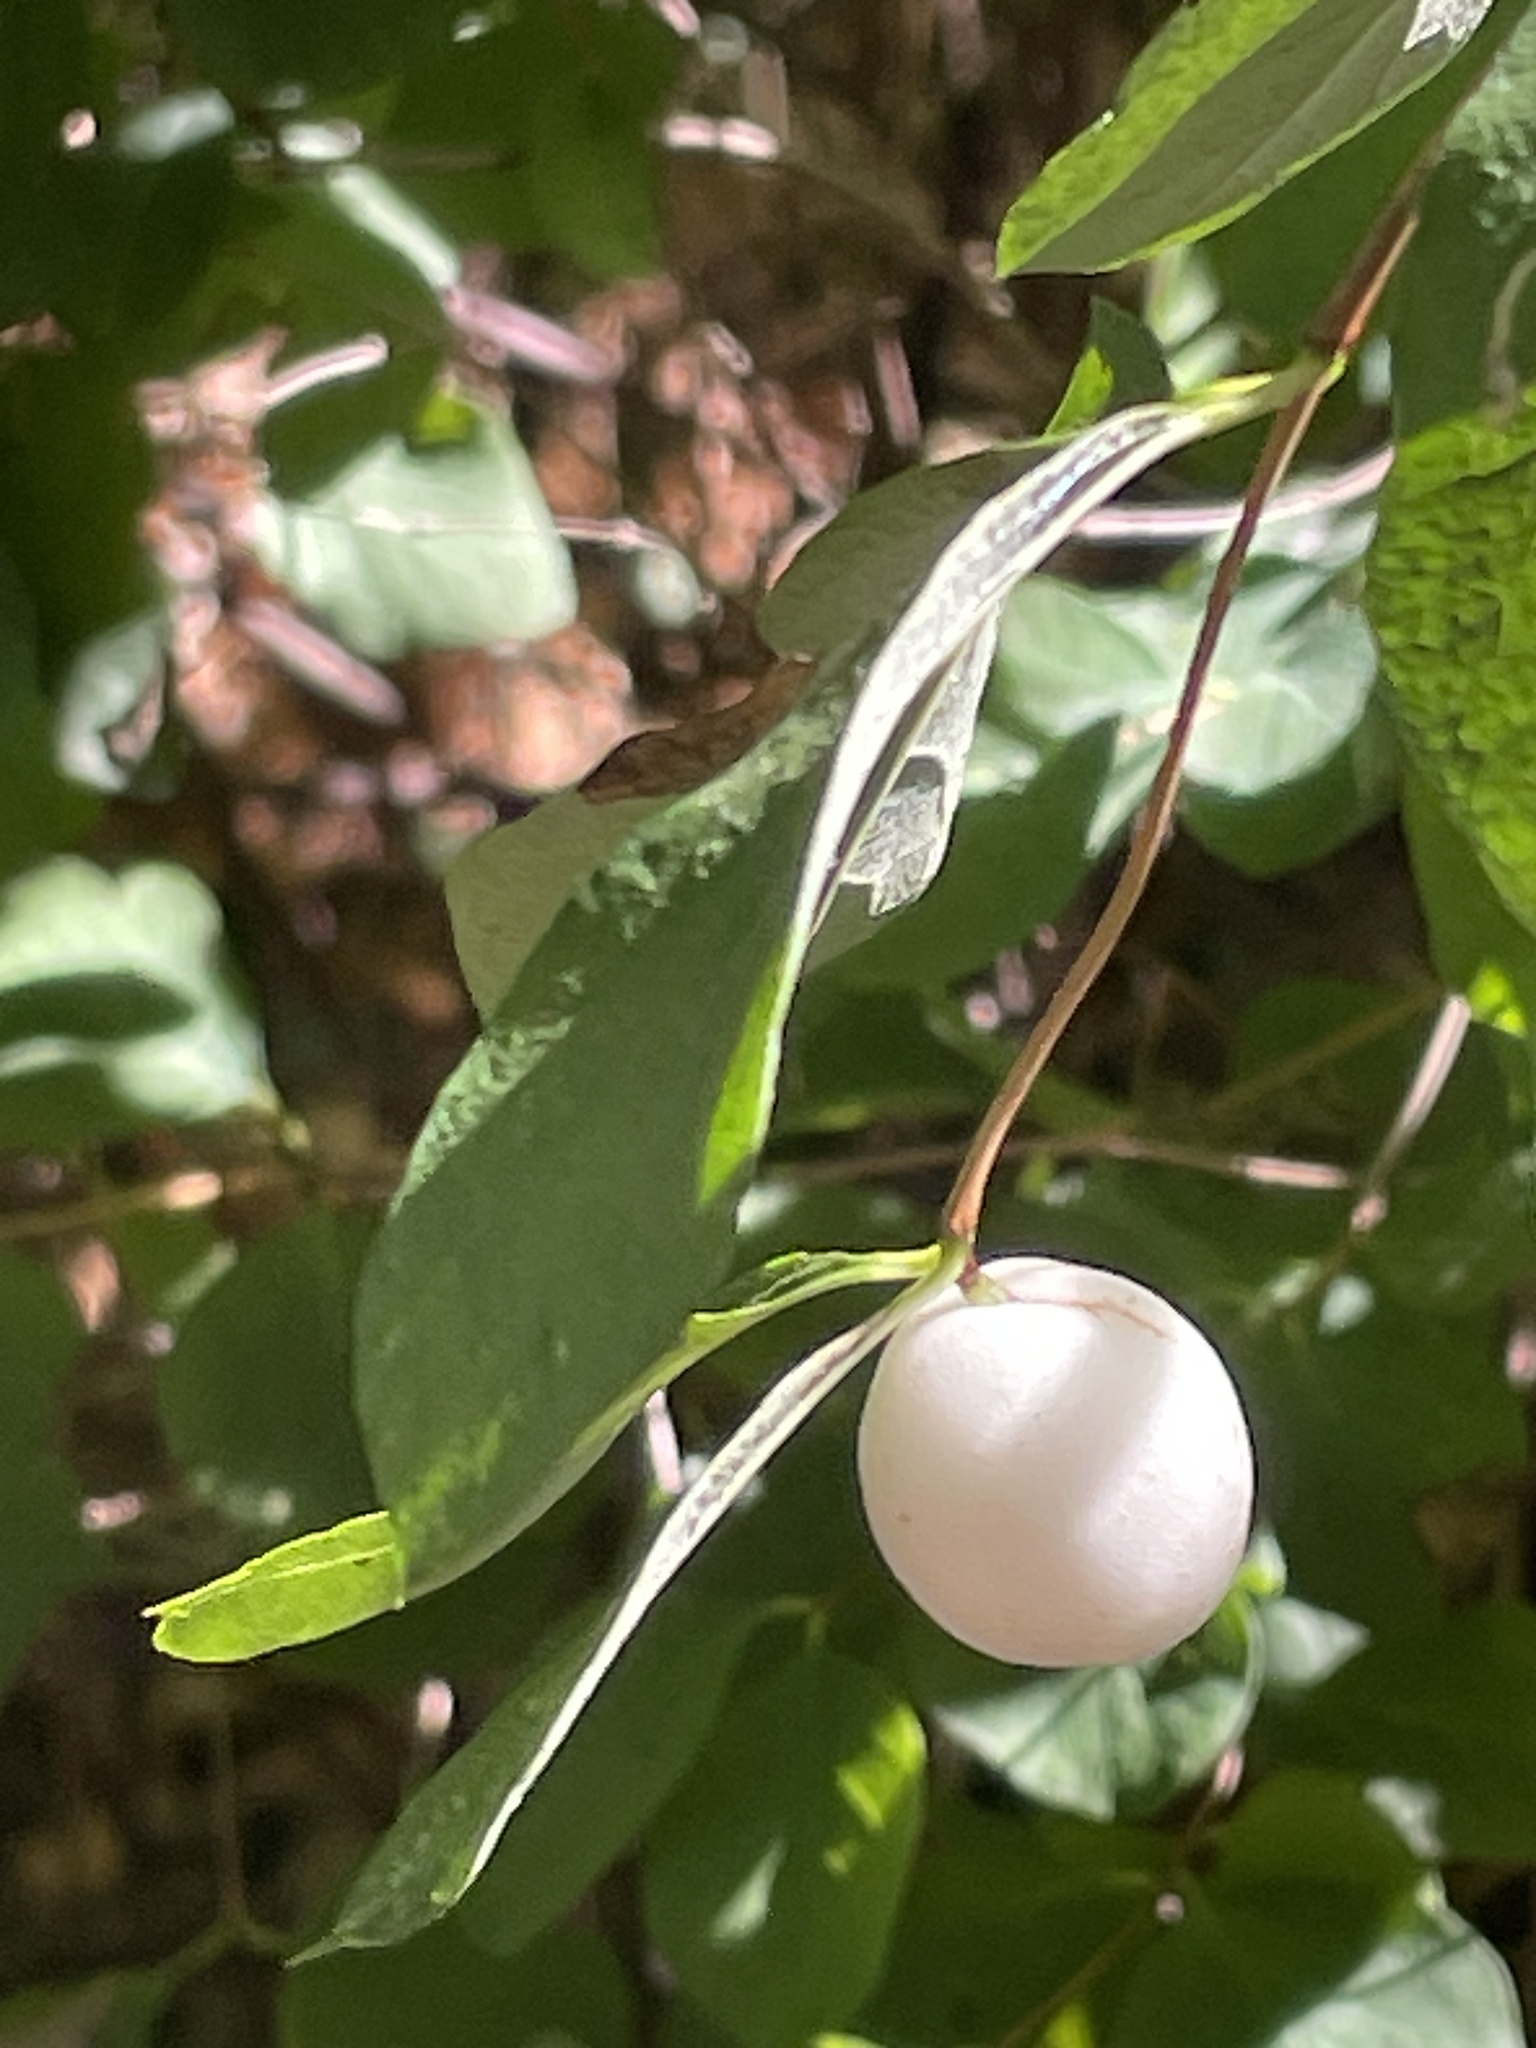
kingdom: Plantae
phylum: Tracheophyta
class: Magnoliopsida
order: Dipsacales
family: Caprifoliaceae
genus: Symphoricarpos
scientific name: Symphoricarpos albus
